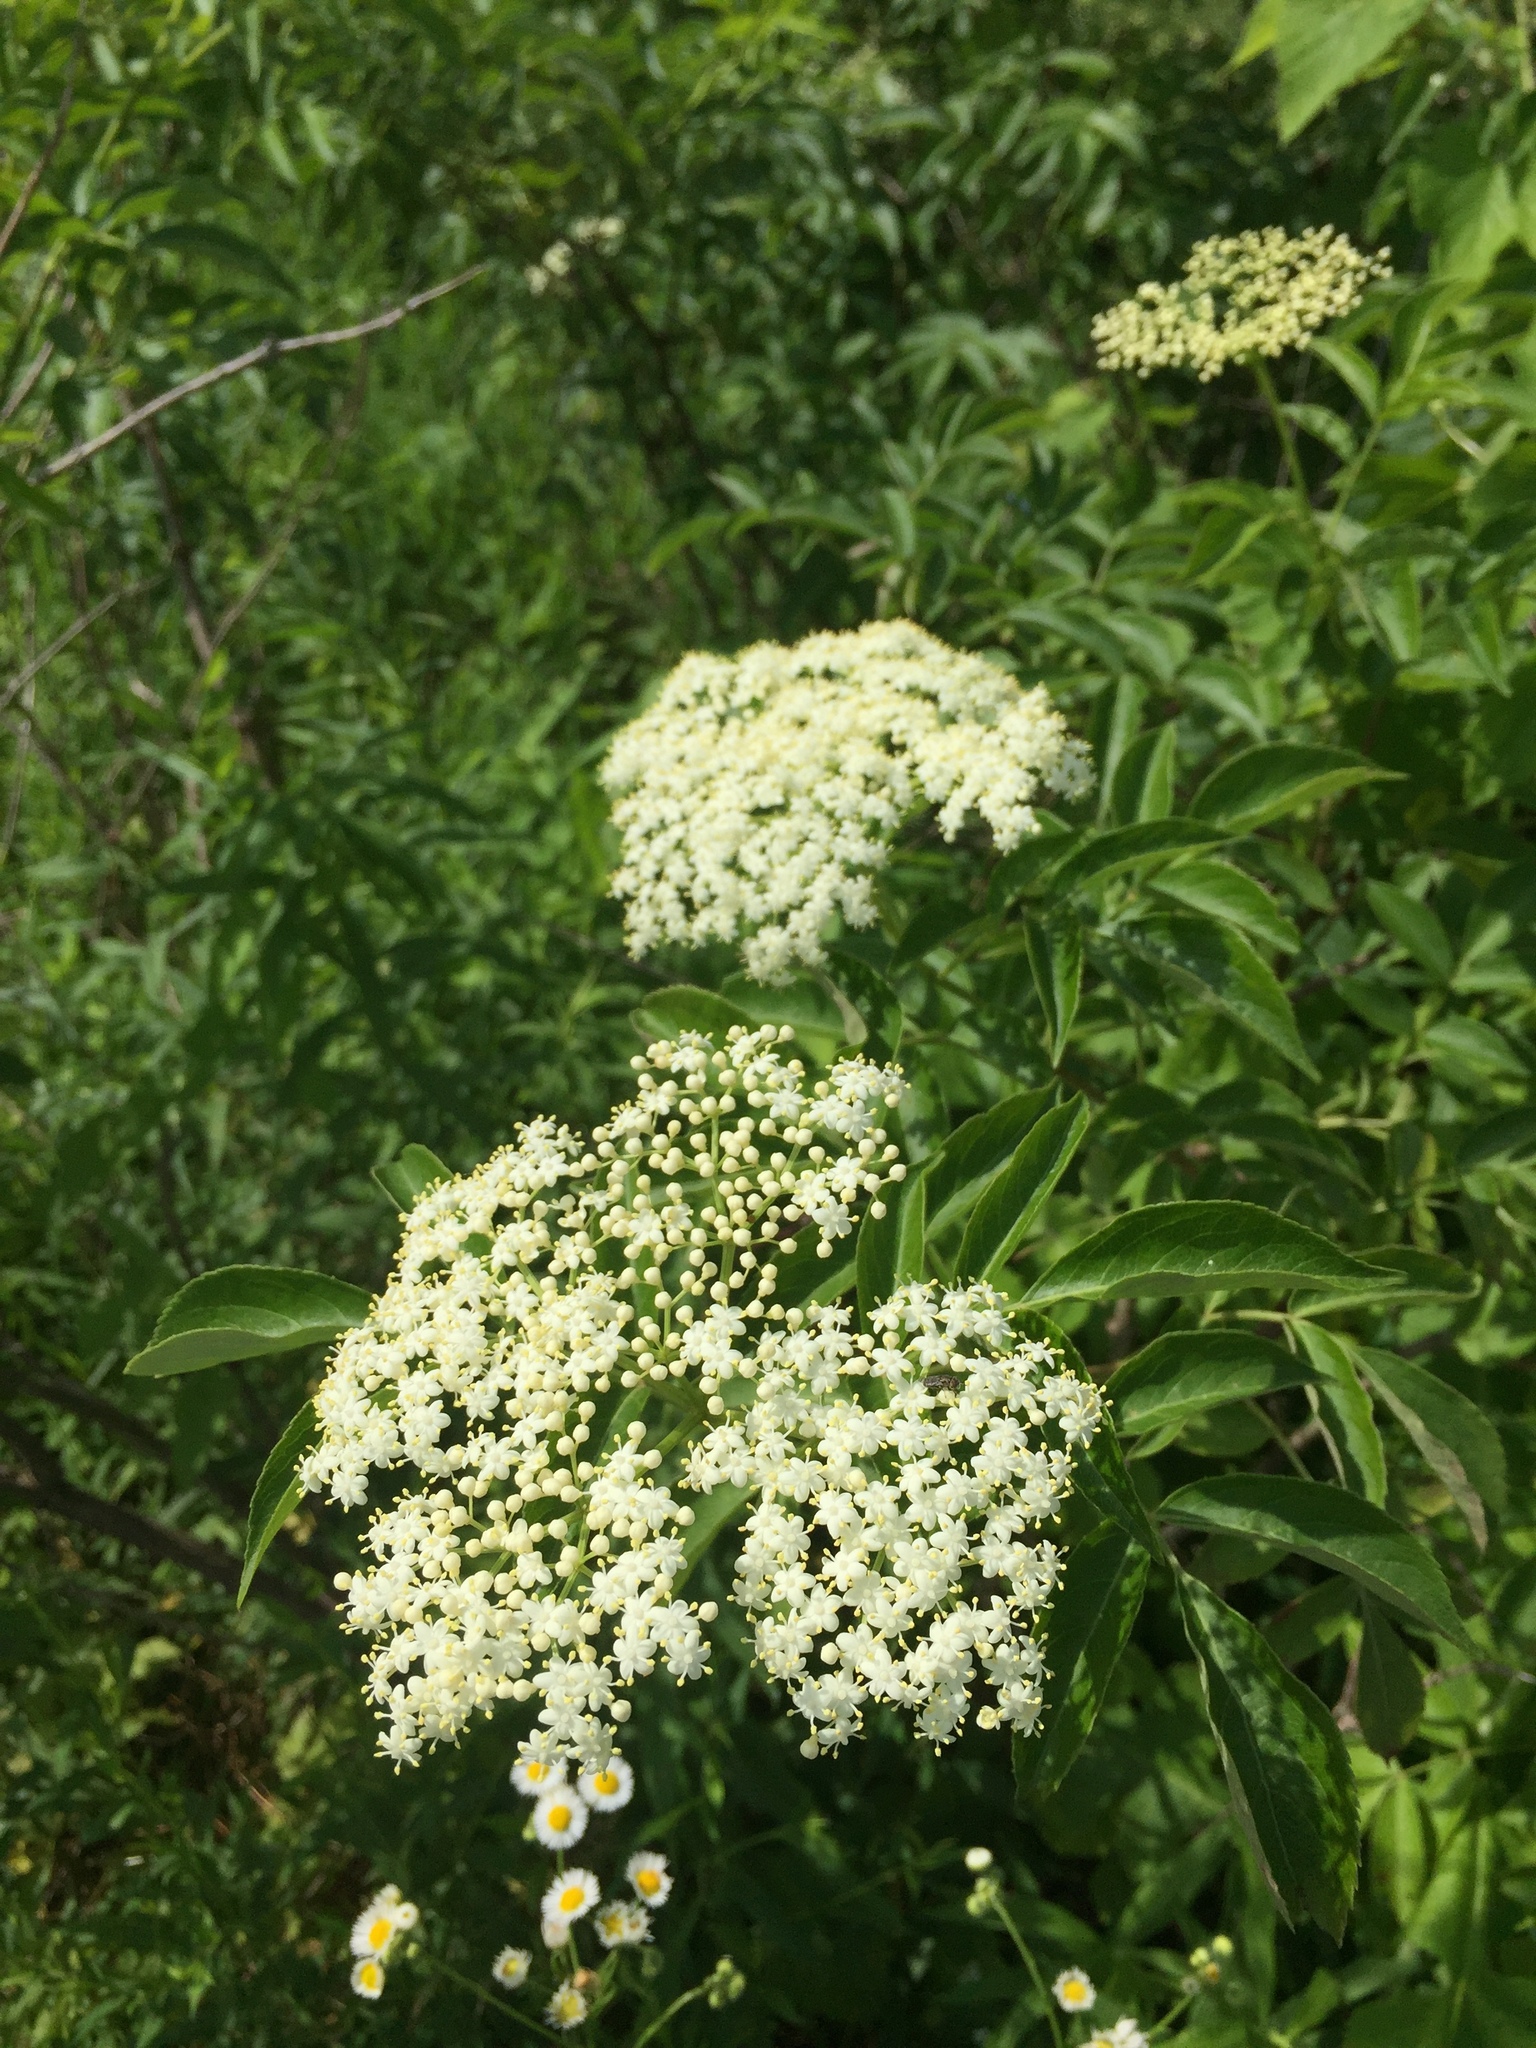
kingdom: Plantae
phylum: Tracheophyta
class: Magnoliopsida
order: Dipsacales
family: Viburnaceae
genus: Sambucus
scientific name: Sambucus canadensis
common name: American elder
